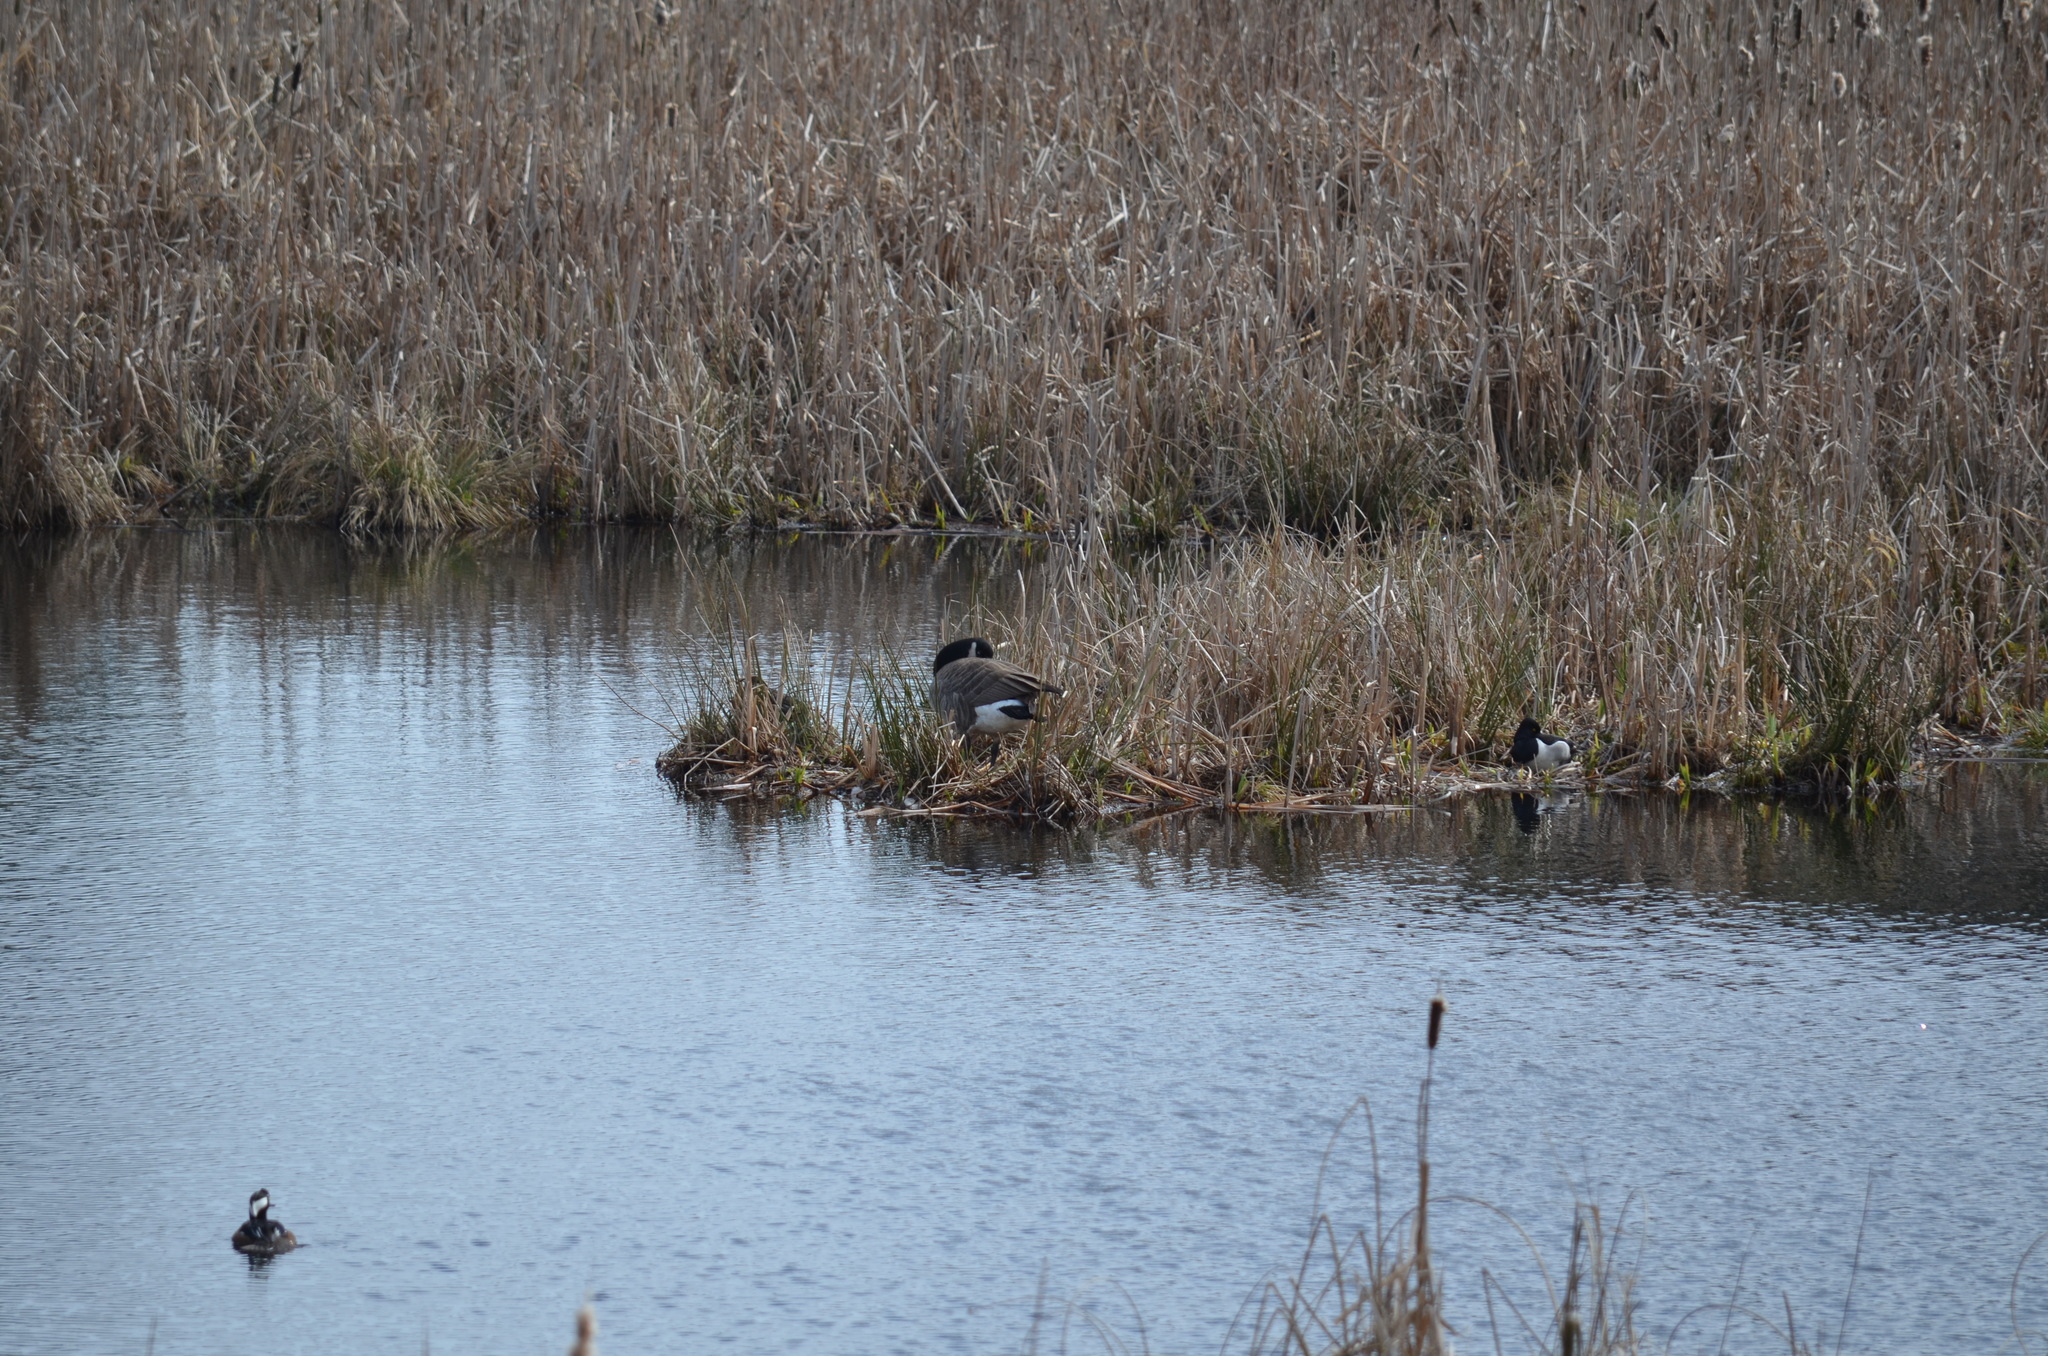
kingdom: Animalia
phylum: Chordata
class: Aves
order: Anseriformes
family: Anatidae
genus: Branta
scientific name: Branta canadensis
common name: Canada goose
